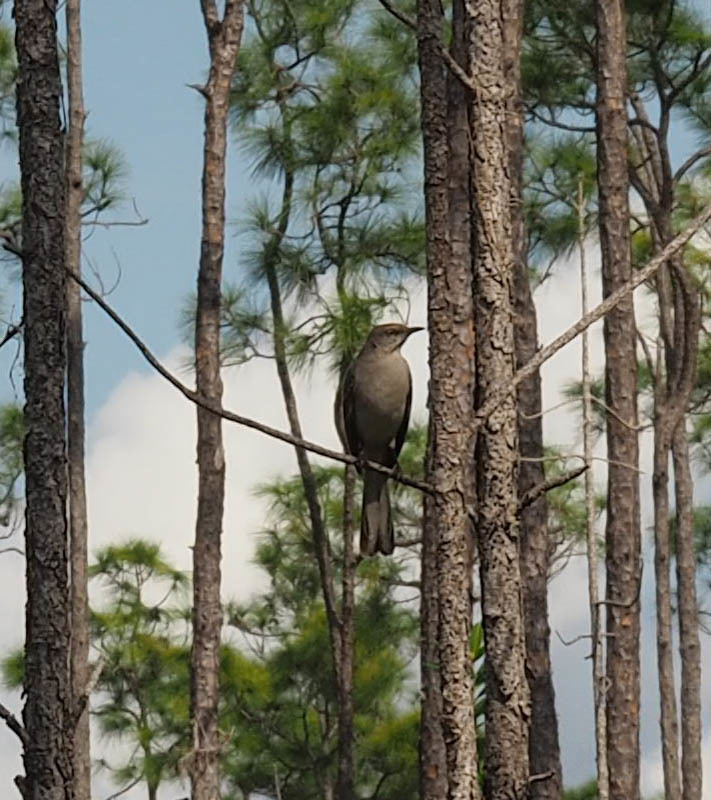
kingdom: Animalia
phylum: Chordata
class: Aves
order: Passeriformes
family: Mimidae
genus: Mimus
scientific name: Mimus polyglottos
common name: Northern mockingbird
